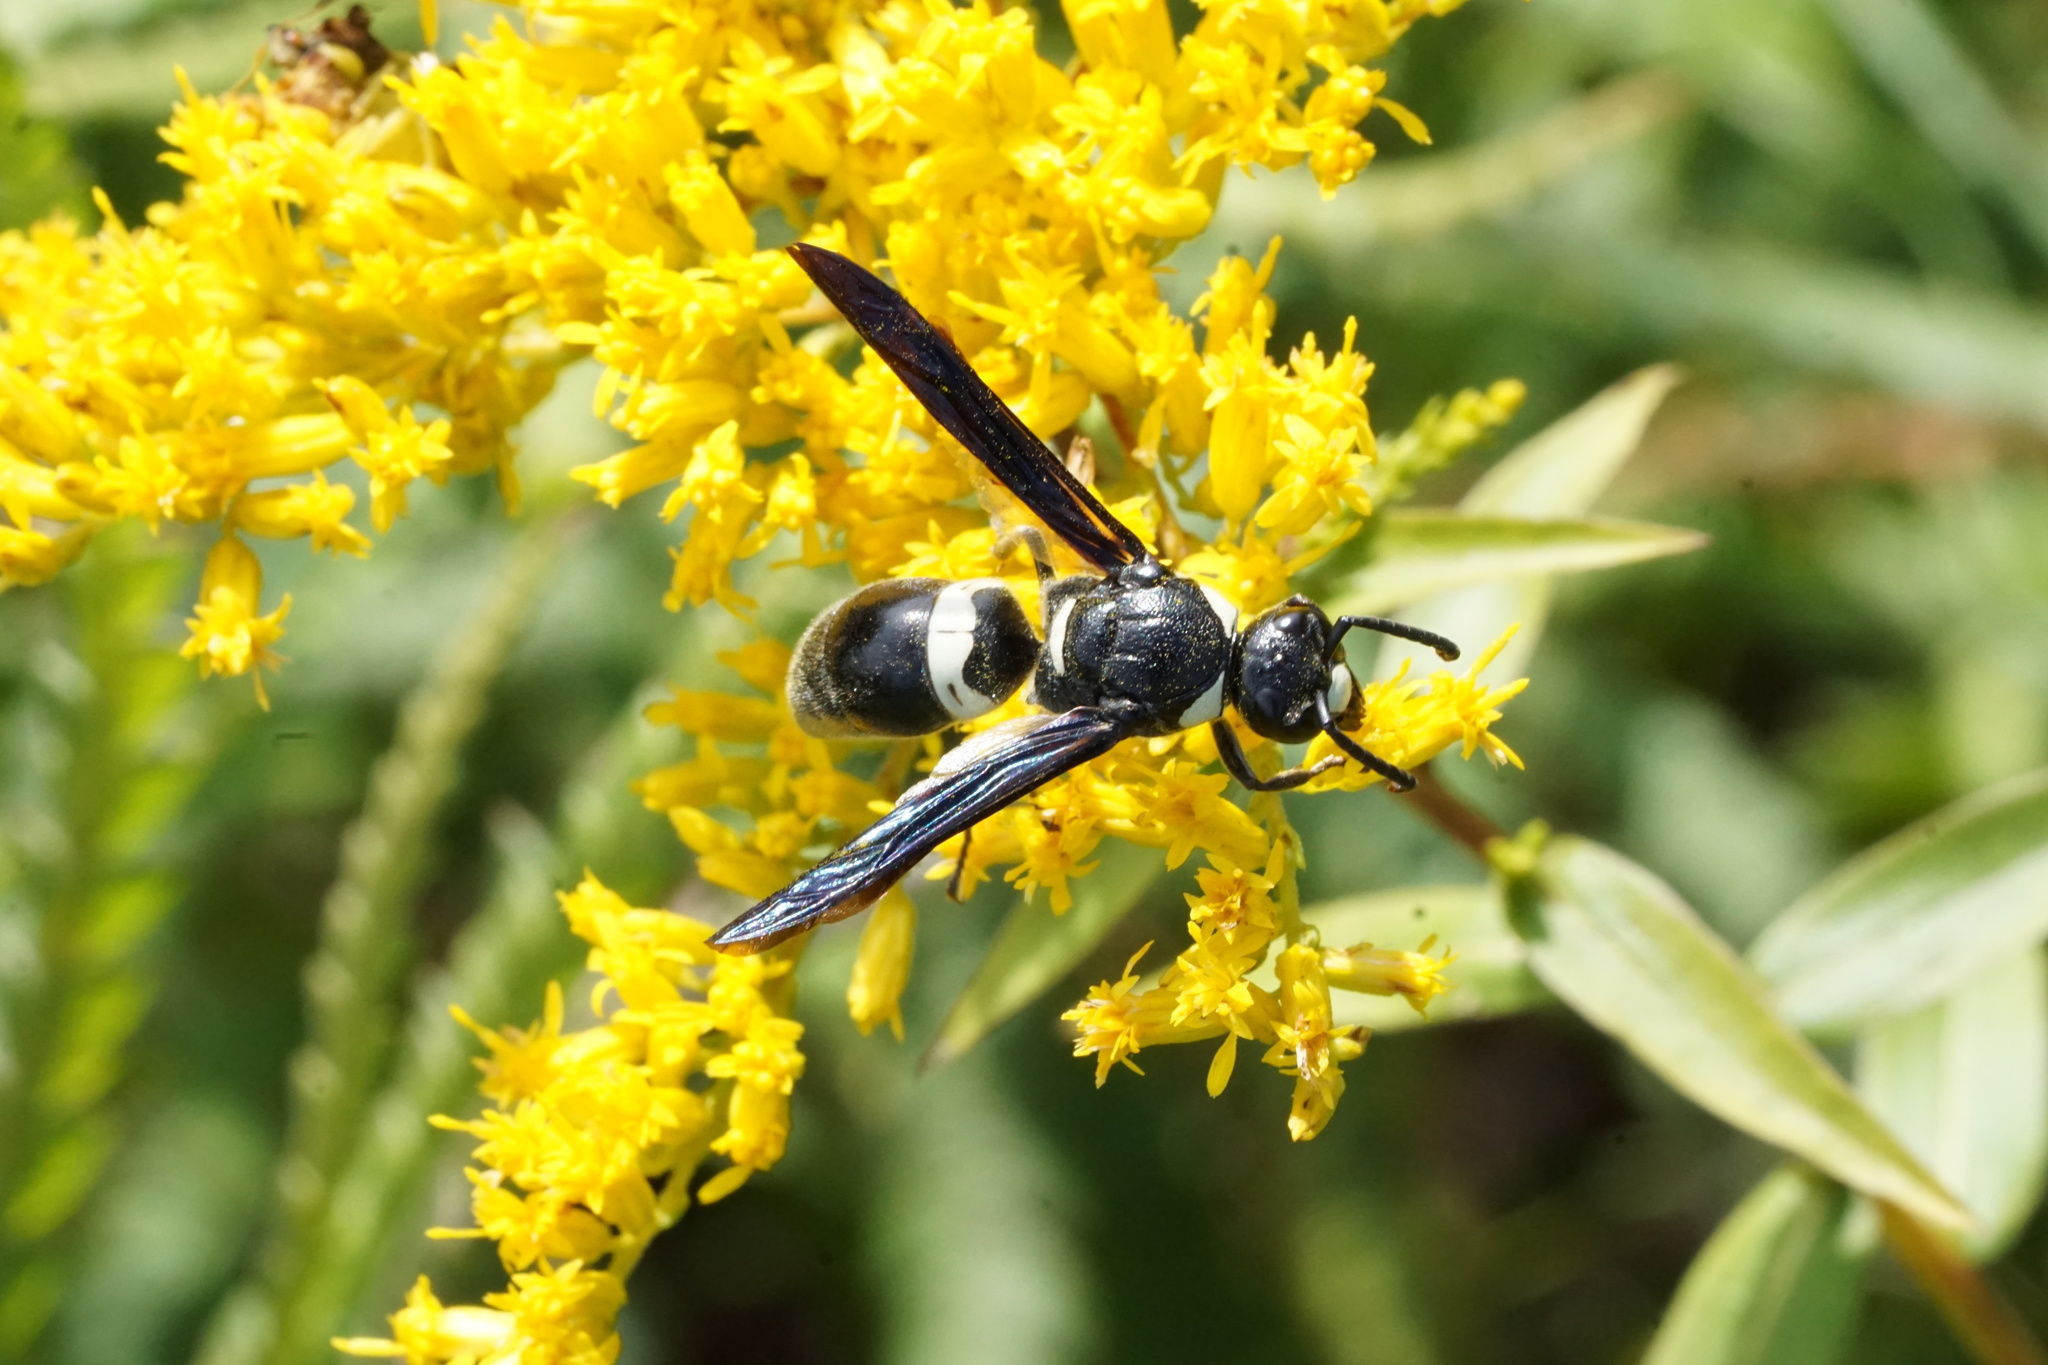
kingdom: Animalia
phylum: Arthropoda
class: Insecta
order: Hymenoptera
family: Eumenidae
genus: Monobia
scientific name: Monobia quadridens
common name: Four-toothed mason wasp
